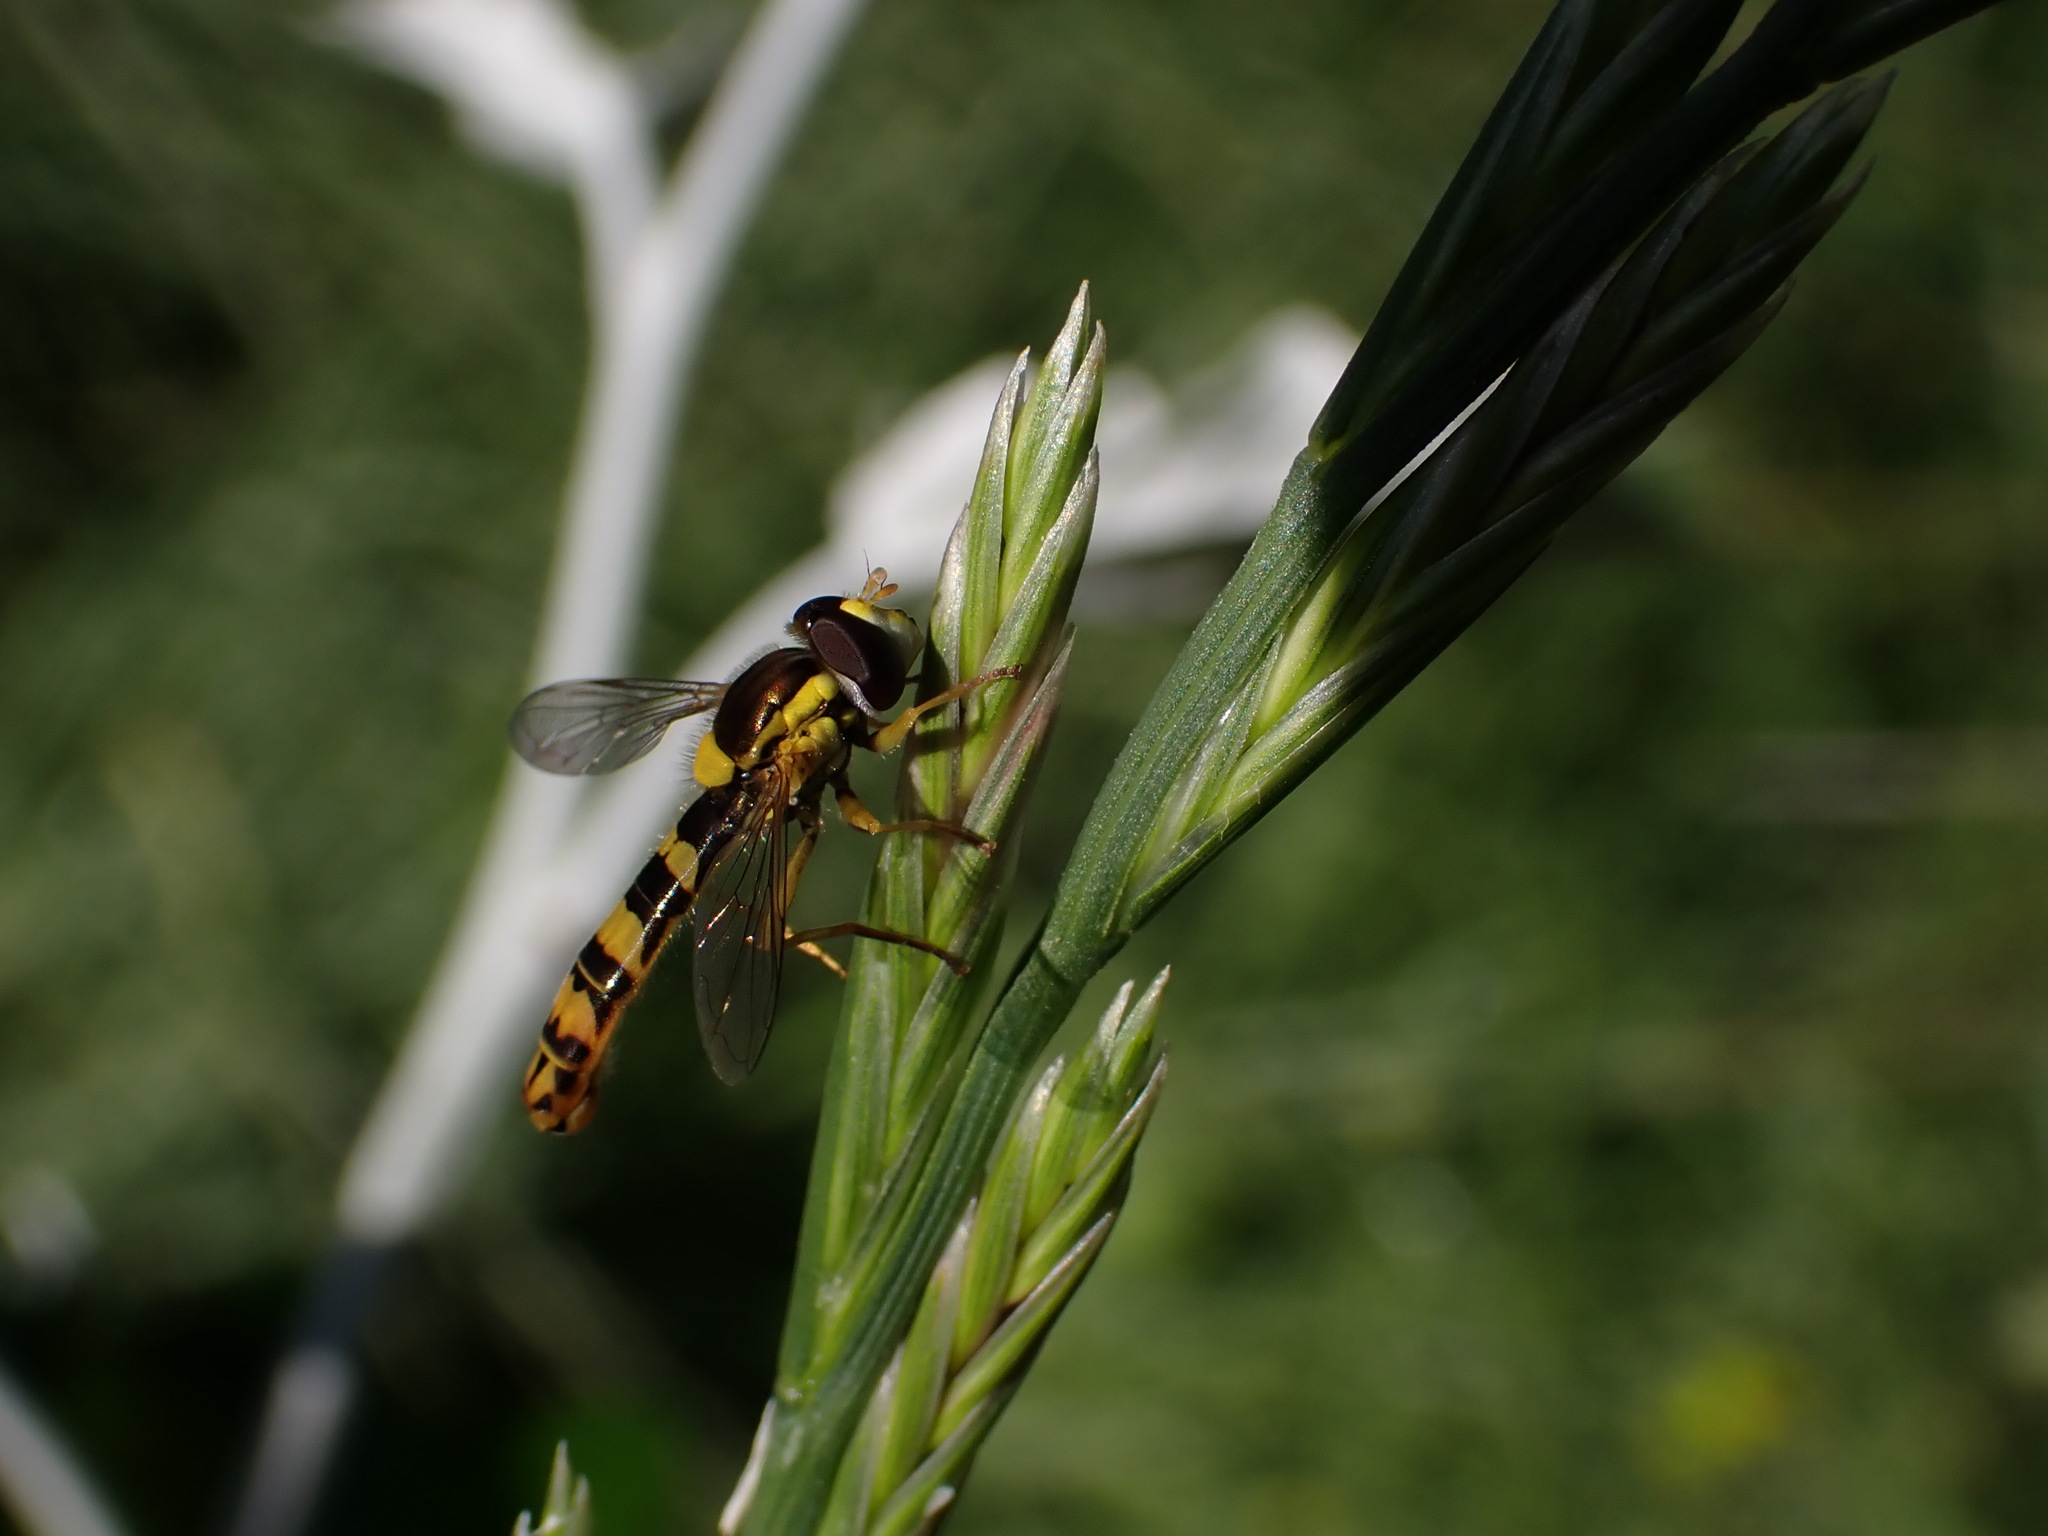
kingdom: Animalia
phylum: Arthropoda
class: Insecta
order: Diptera
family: Syrphidae
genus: Sphaerophoria
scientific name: Sphaerophoria scripta
